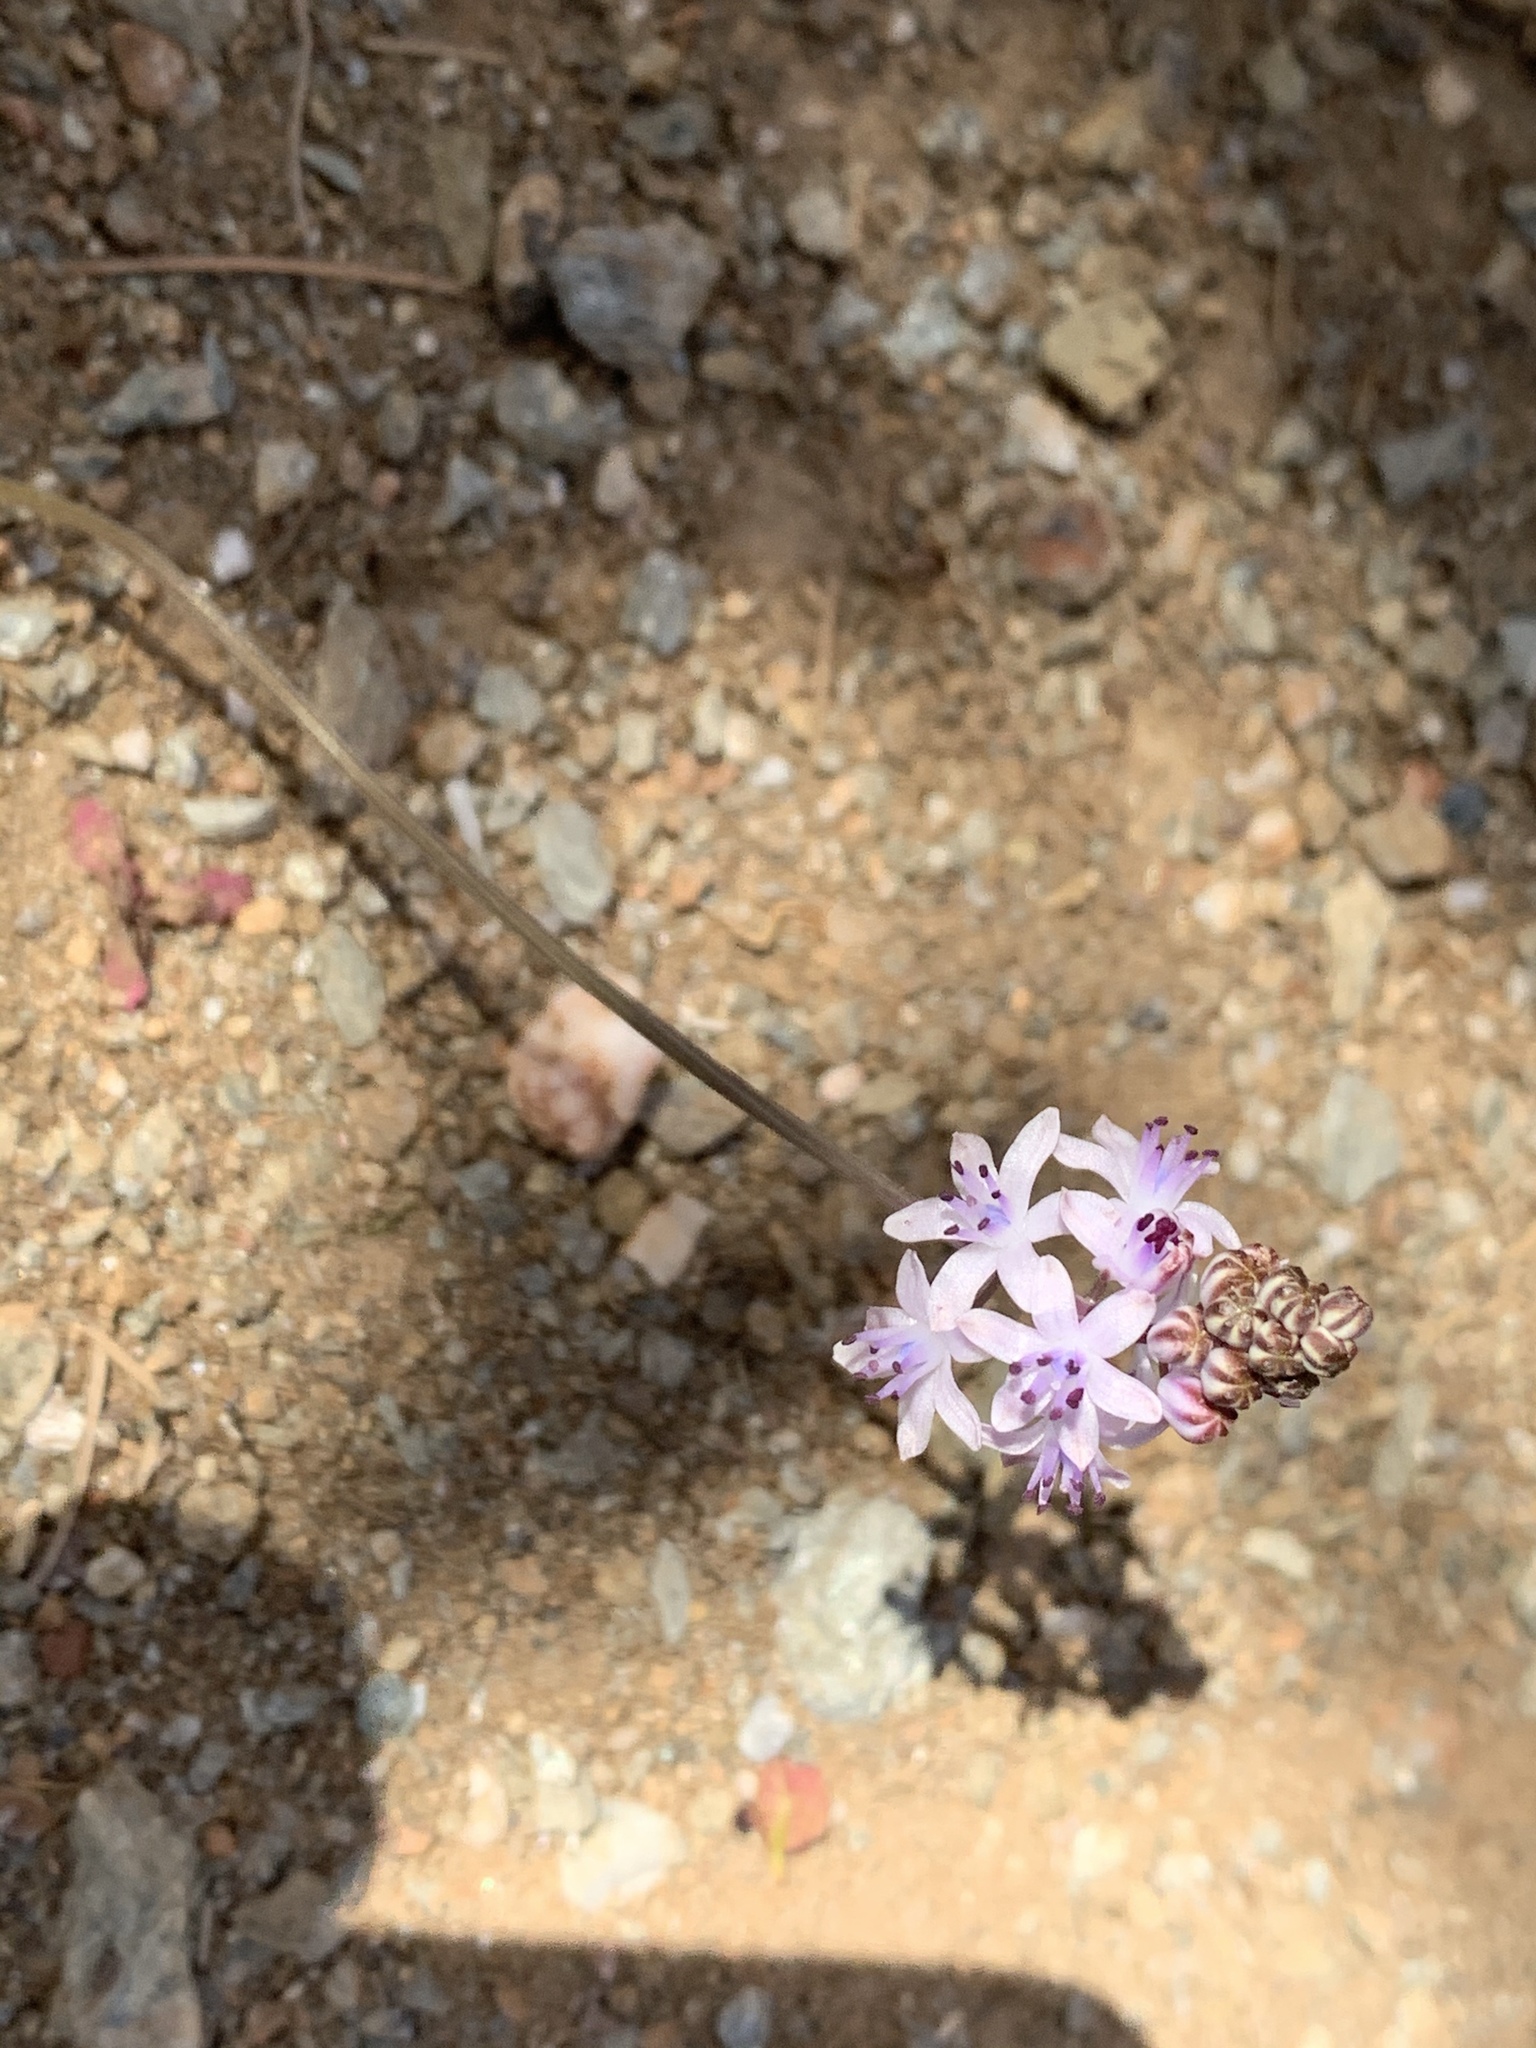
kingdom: Plantae
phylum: Tracheophyta
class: Liliopsida
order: Asparagales
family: Asparagaceae
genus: Prospero
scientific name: Prospero autumnale
